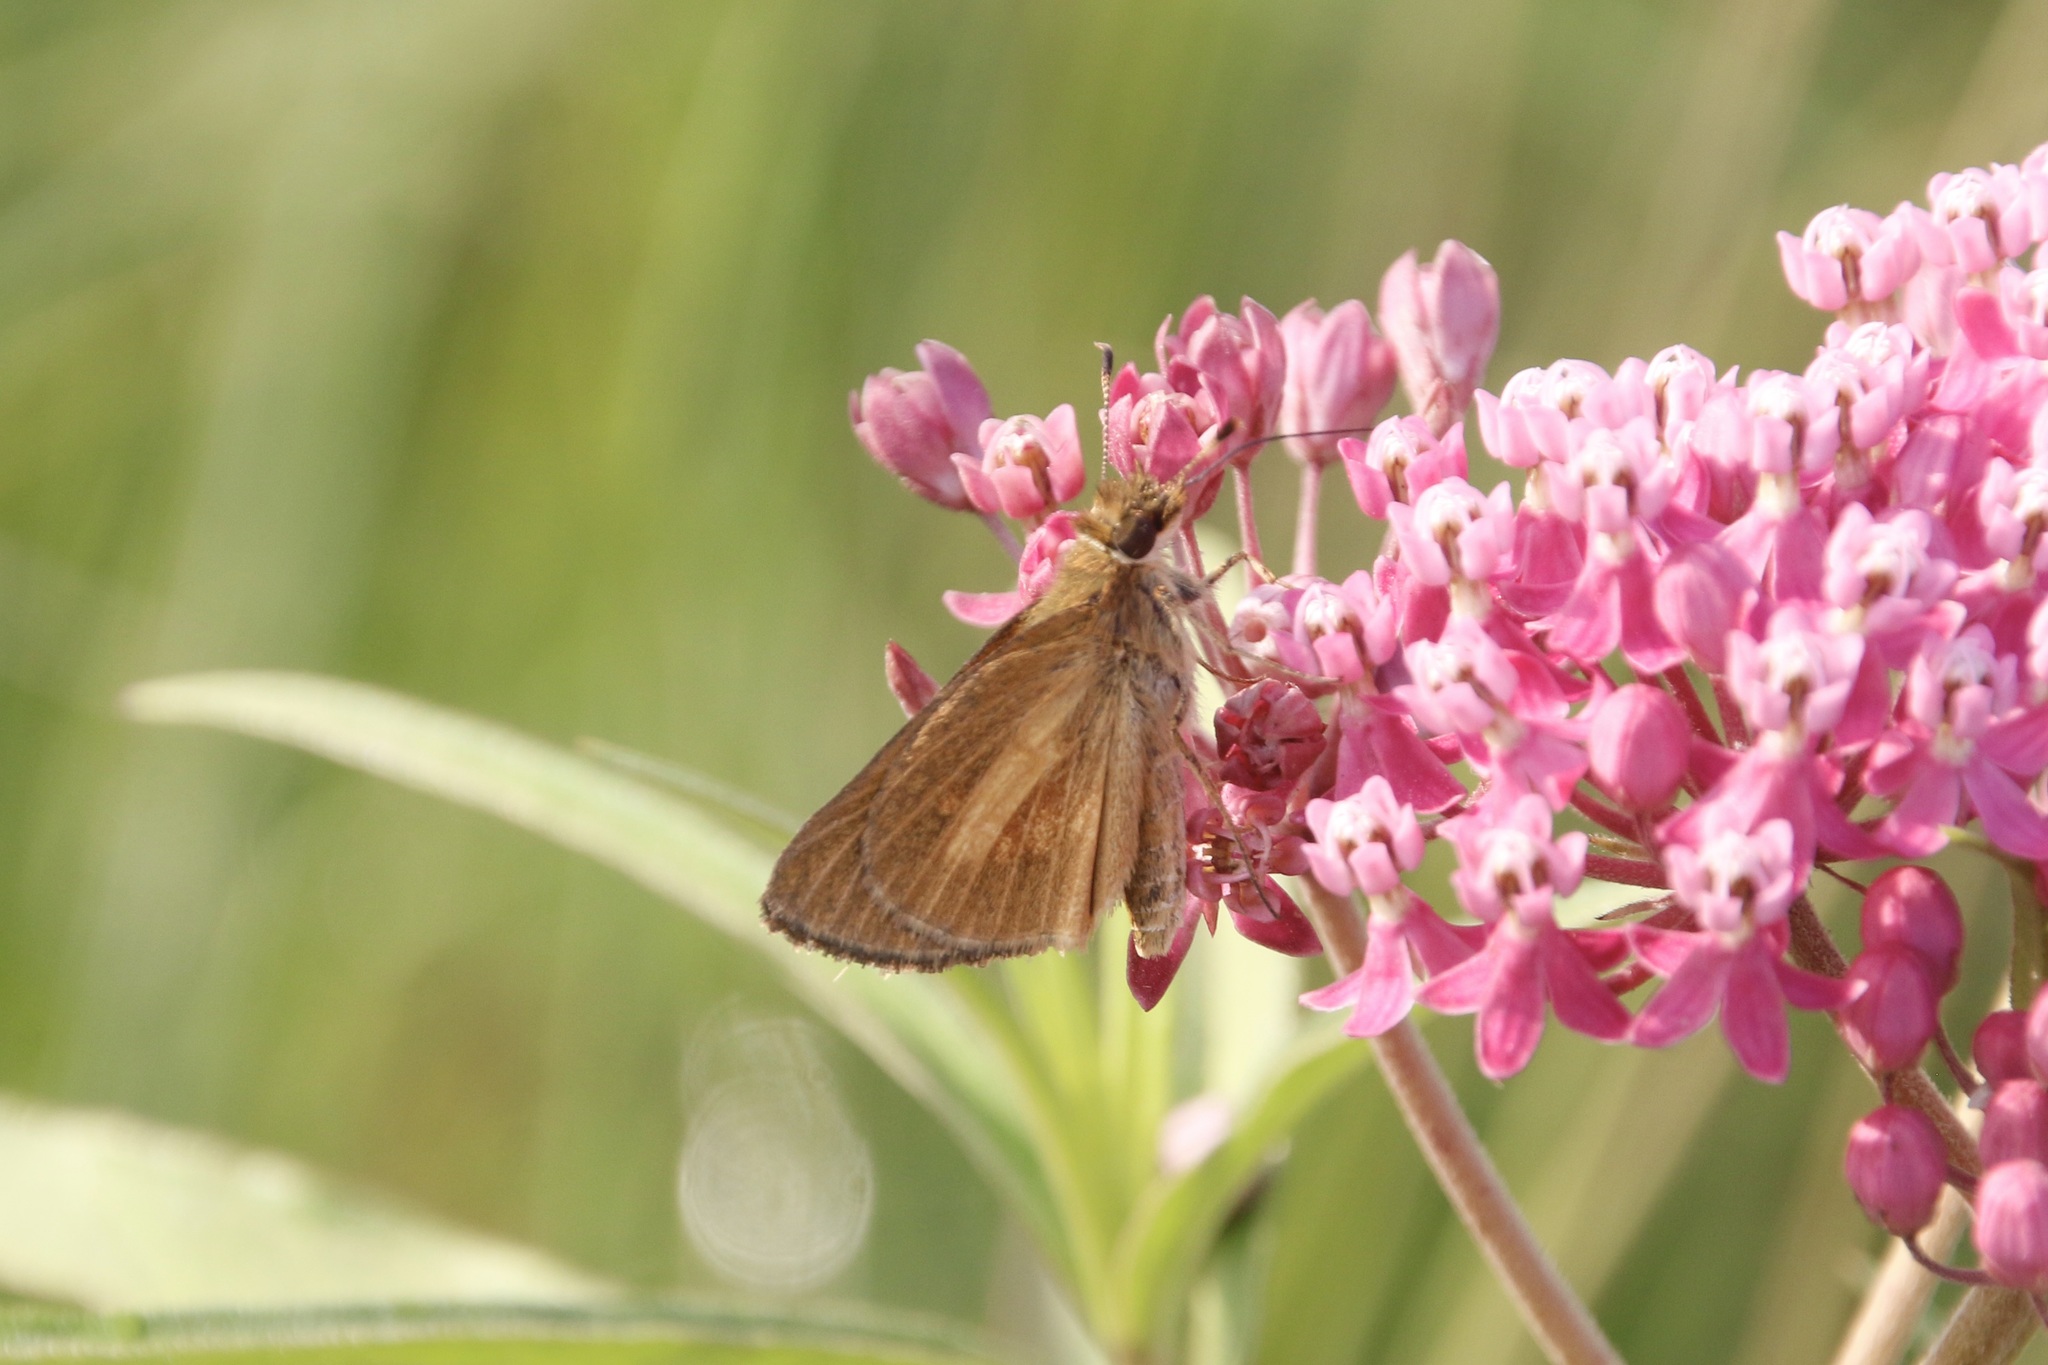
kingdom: Animalia
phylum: Arthropoda
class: Insecta
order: Lepidoptera
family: Hesperiidae
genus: Poanes
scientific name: Poanes viator
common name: Broad-winged skipper
